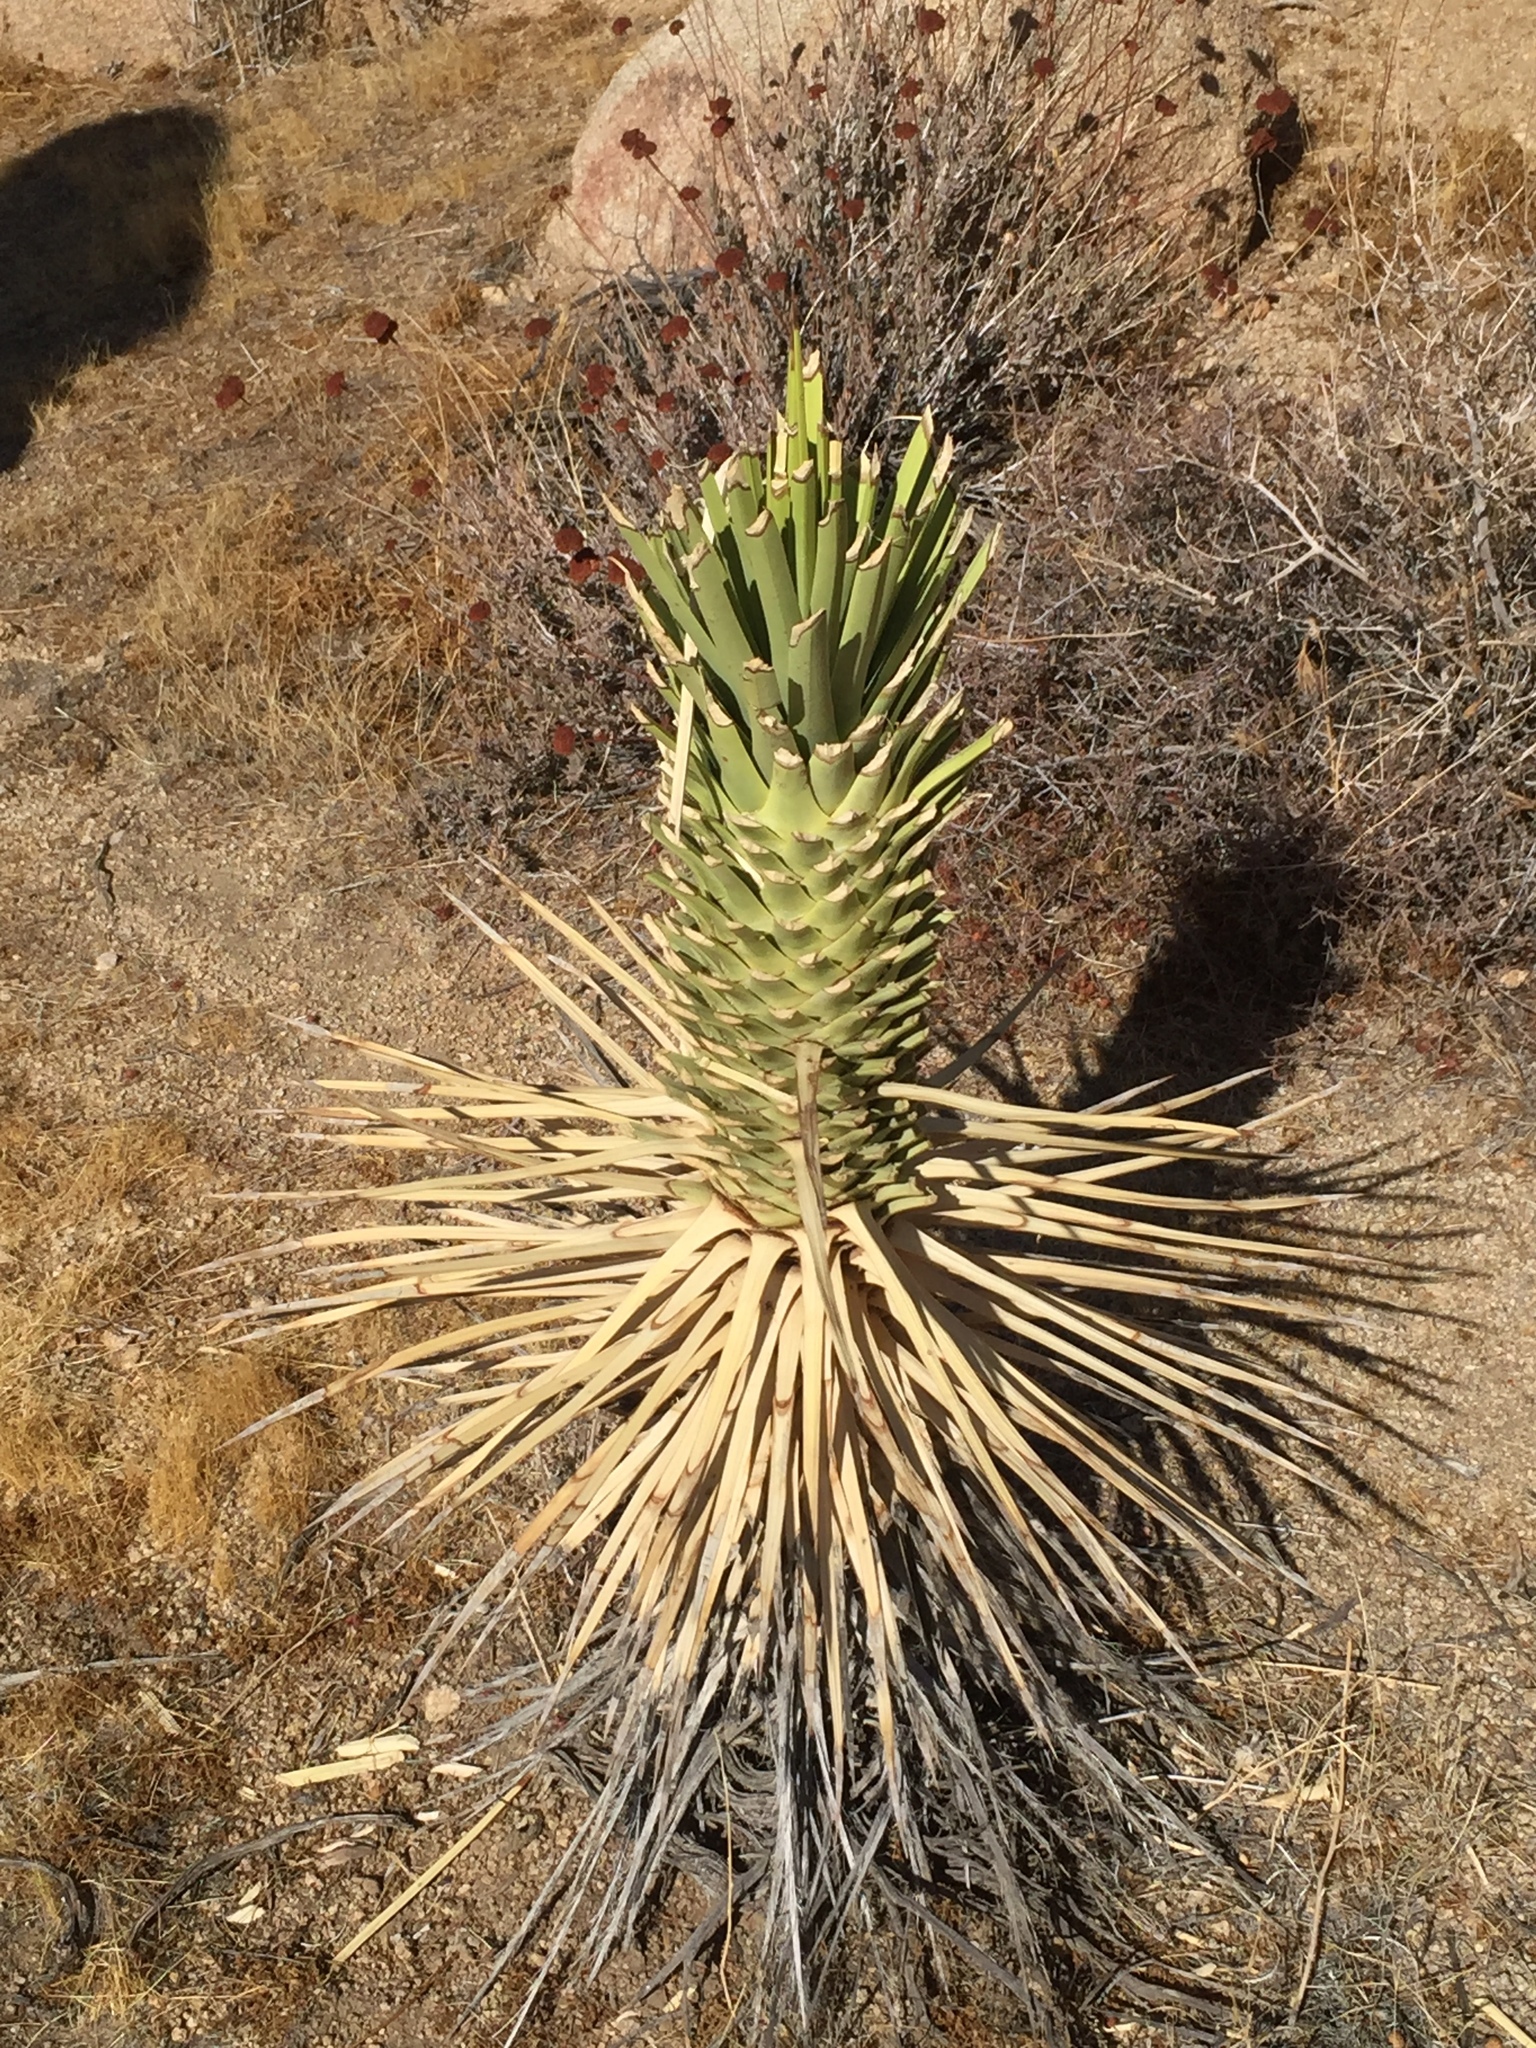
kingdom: Plantae
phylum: Tracheophyta
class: Liliopsida
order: Asparagales
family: Asparagaceae
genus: Yucca
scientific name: Yucca brevifolia
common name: Joshua tree
